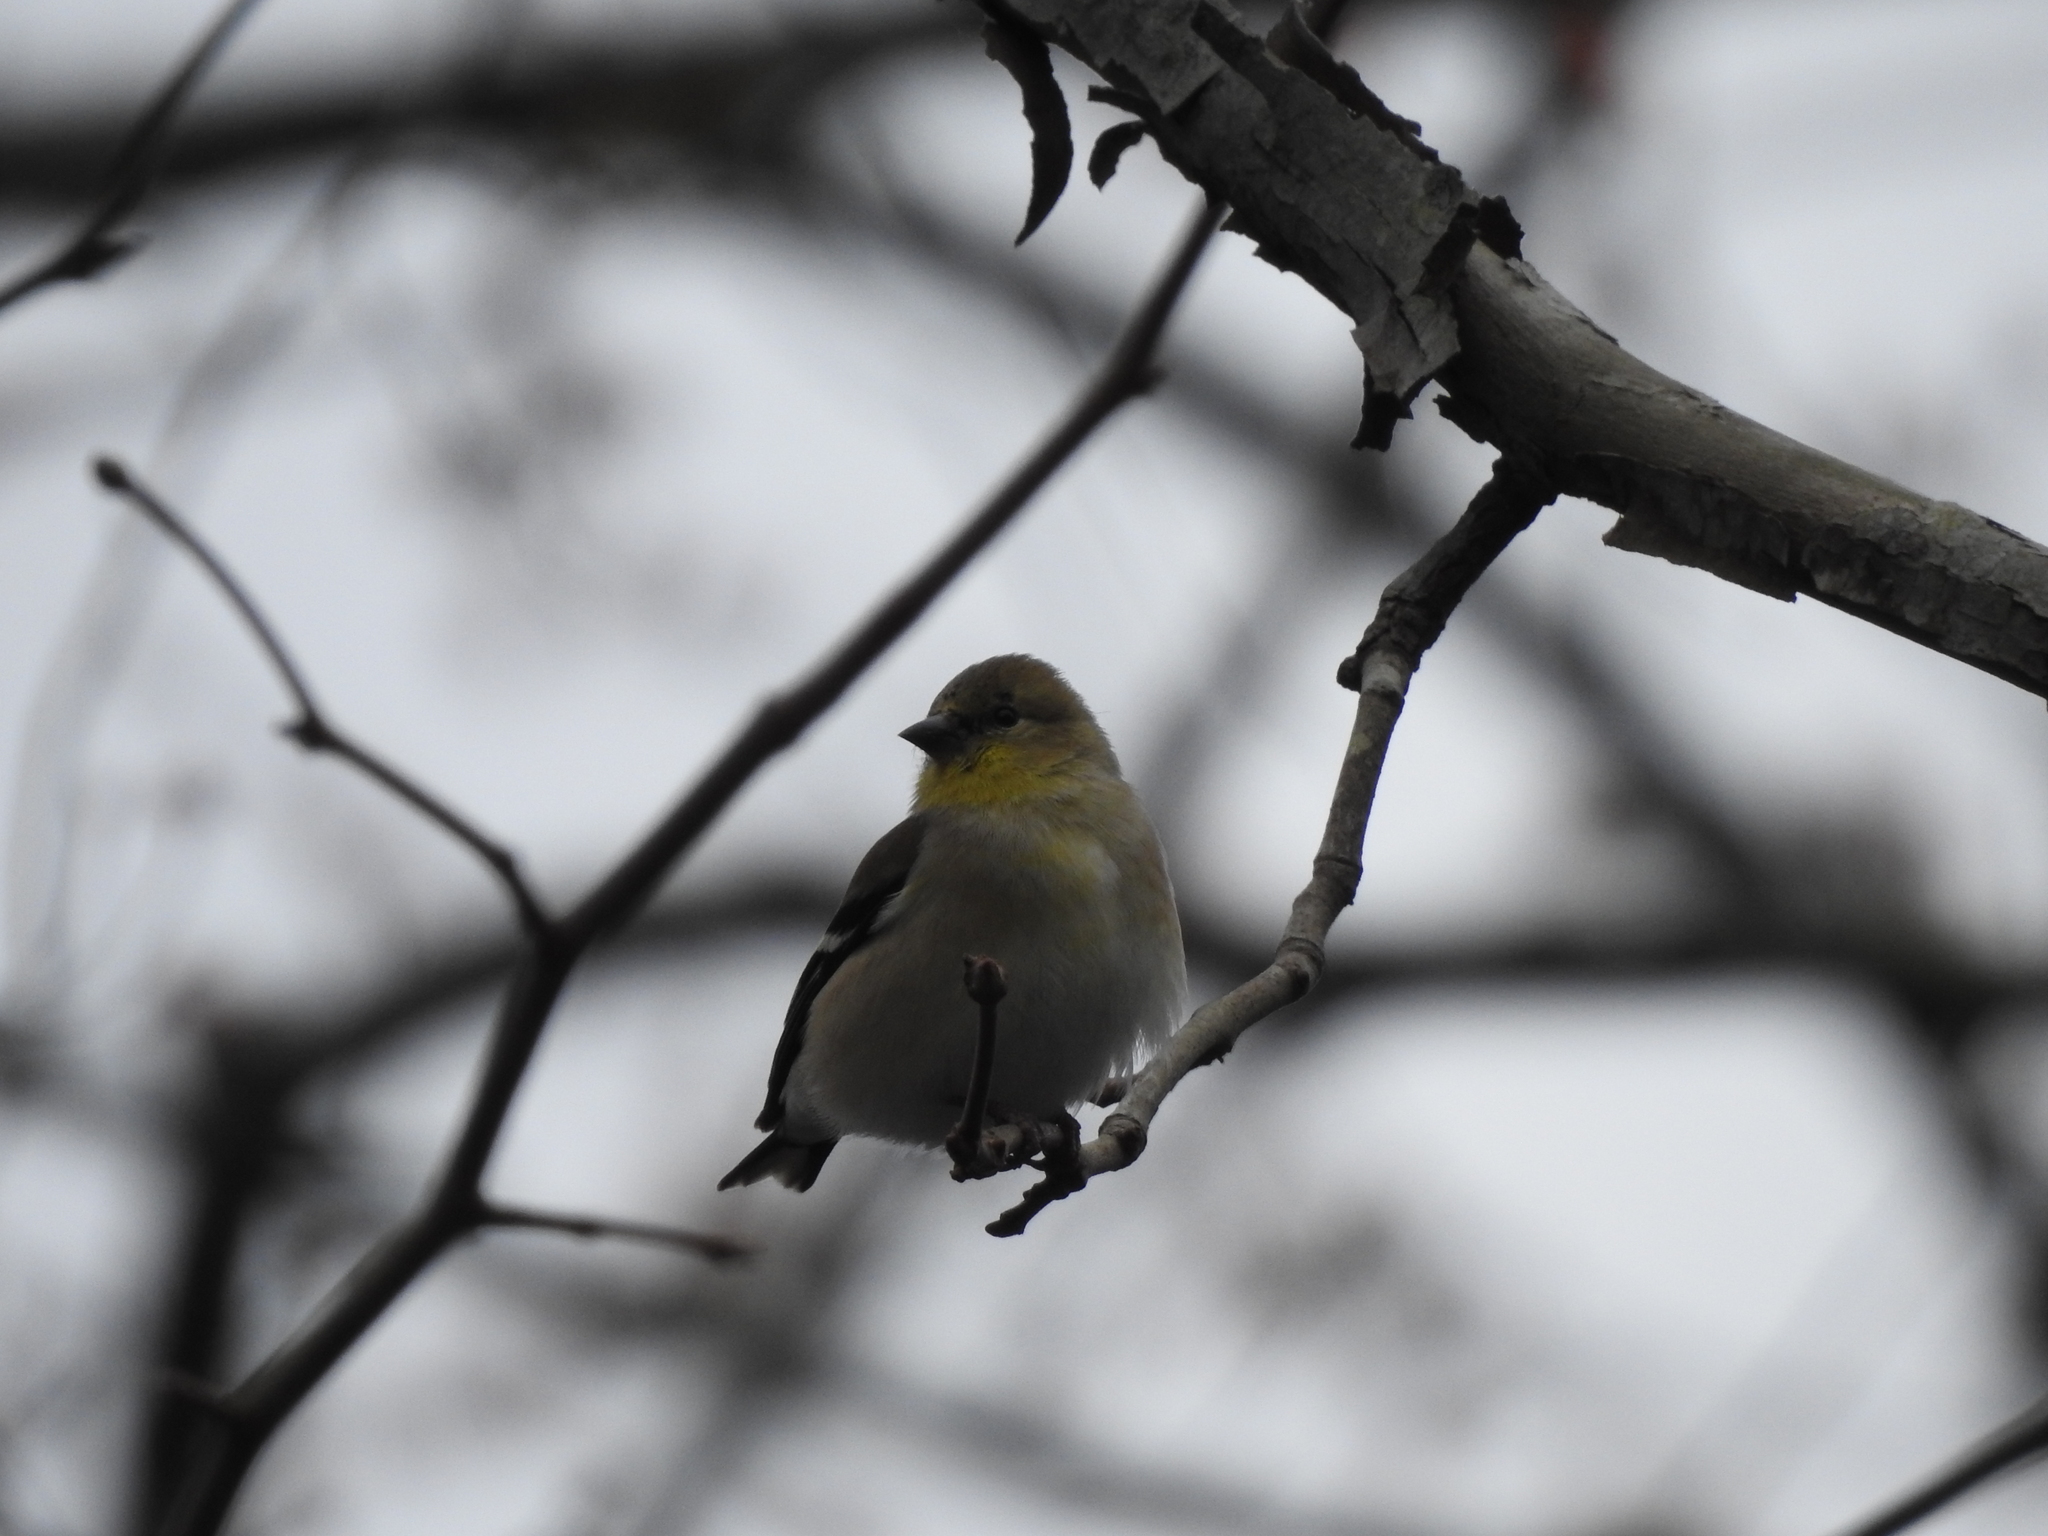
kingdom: Animalia
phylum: Chordata
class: Aves
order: Passeriformes
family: Fringillidae
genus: Spinus
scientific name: Spinus tristis
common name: American goldfinch
